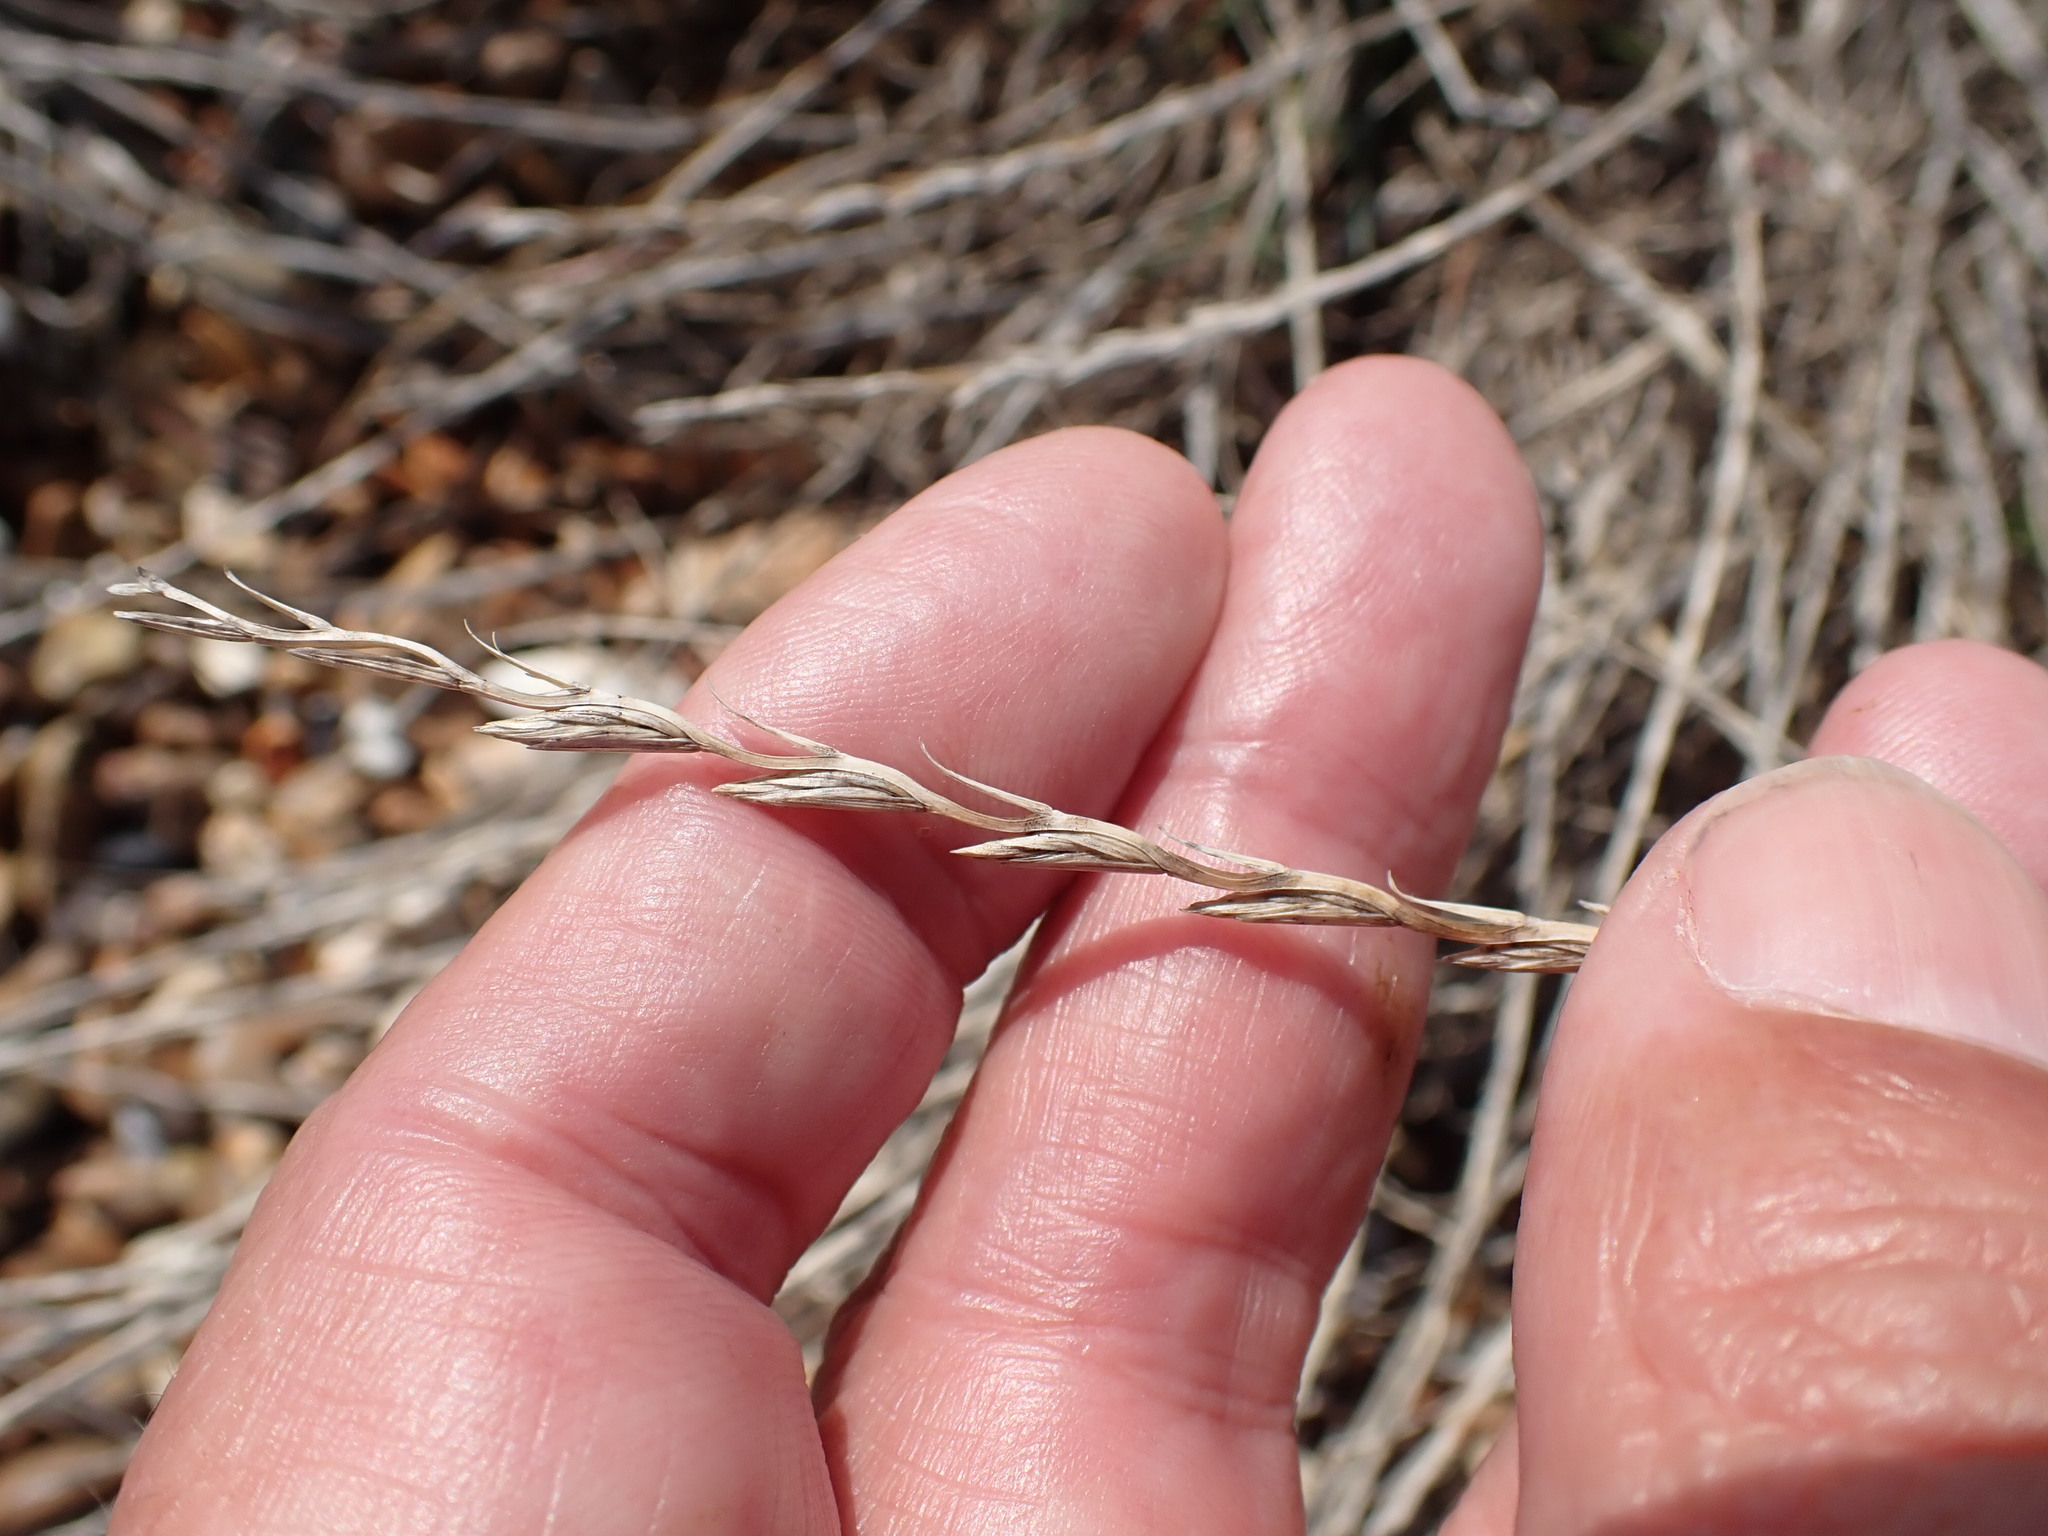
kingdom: Plantae
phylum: Tracheophyta
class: Liliopsida
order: Poales
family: Poaceae
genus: Lolium
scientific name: Lolium perenne
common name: Perennial ryegrass
